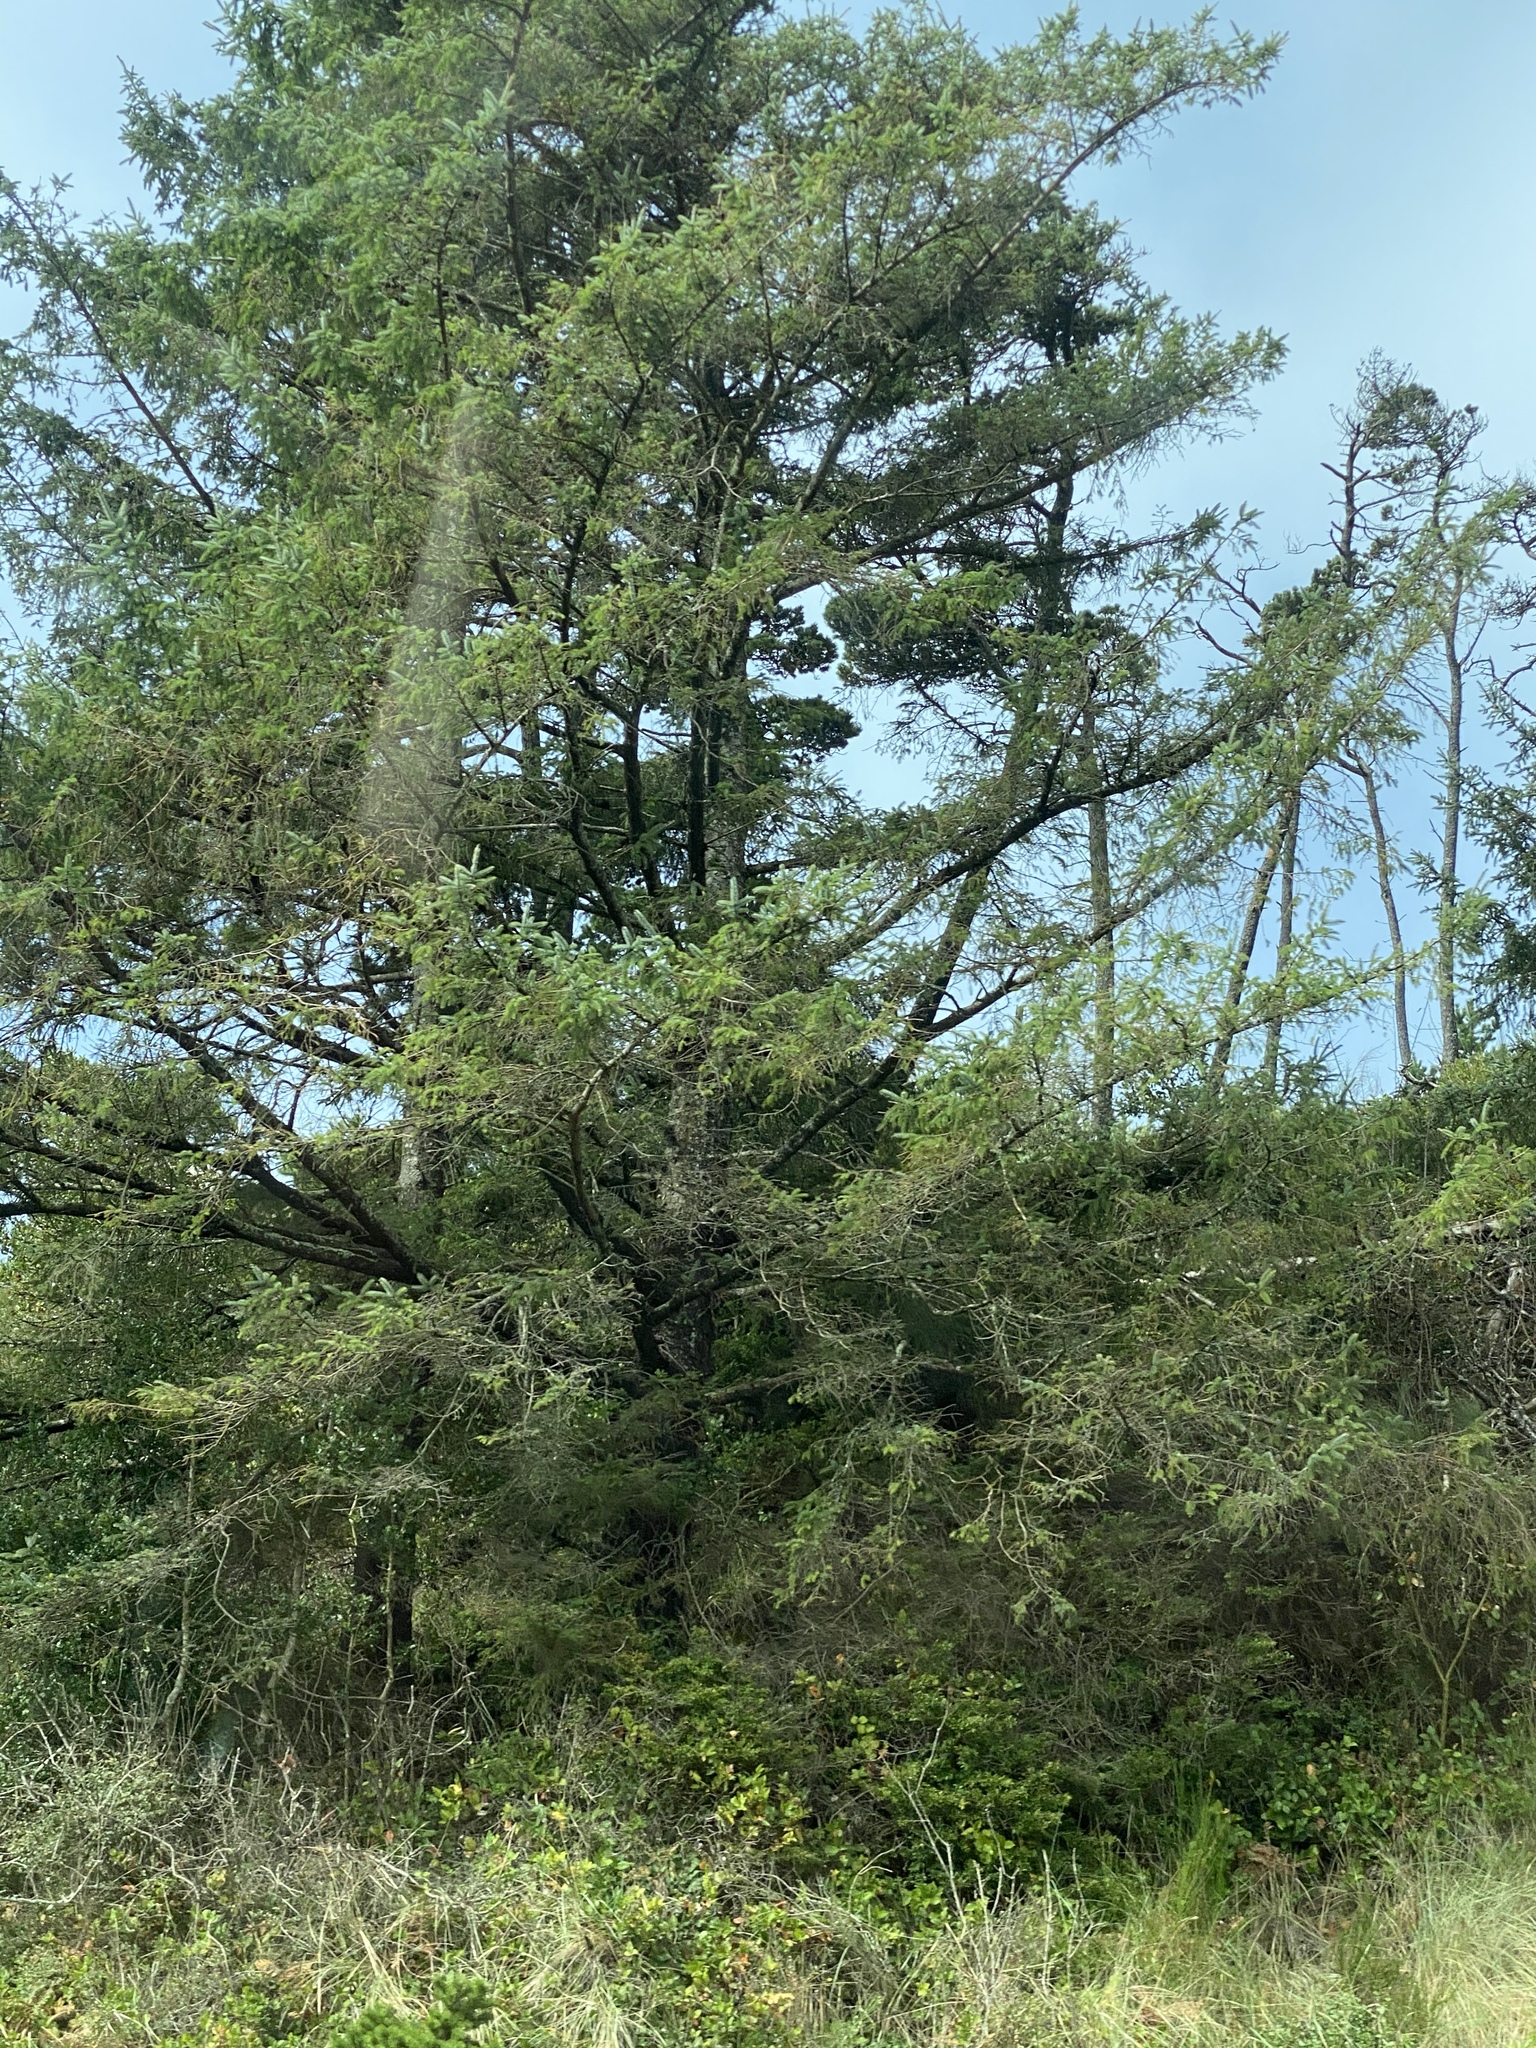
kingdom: Plantae
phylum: Tracheophyta
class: Pinopsida
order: Pinales
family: Pinaceae
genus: Picea
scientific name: Picea sitchensis
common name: Sitka spruce
